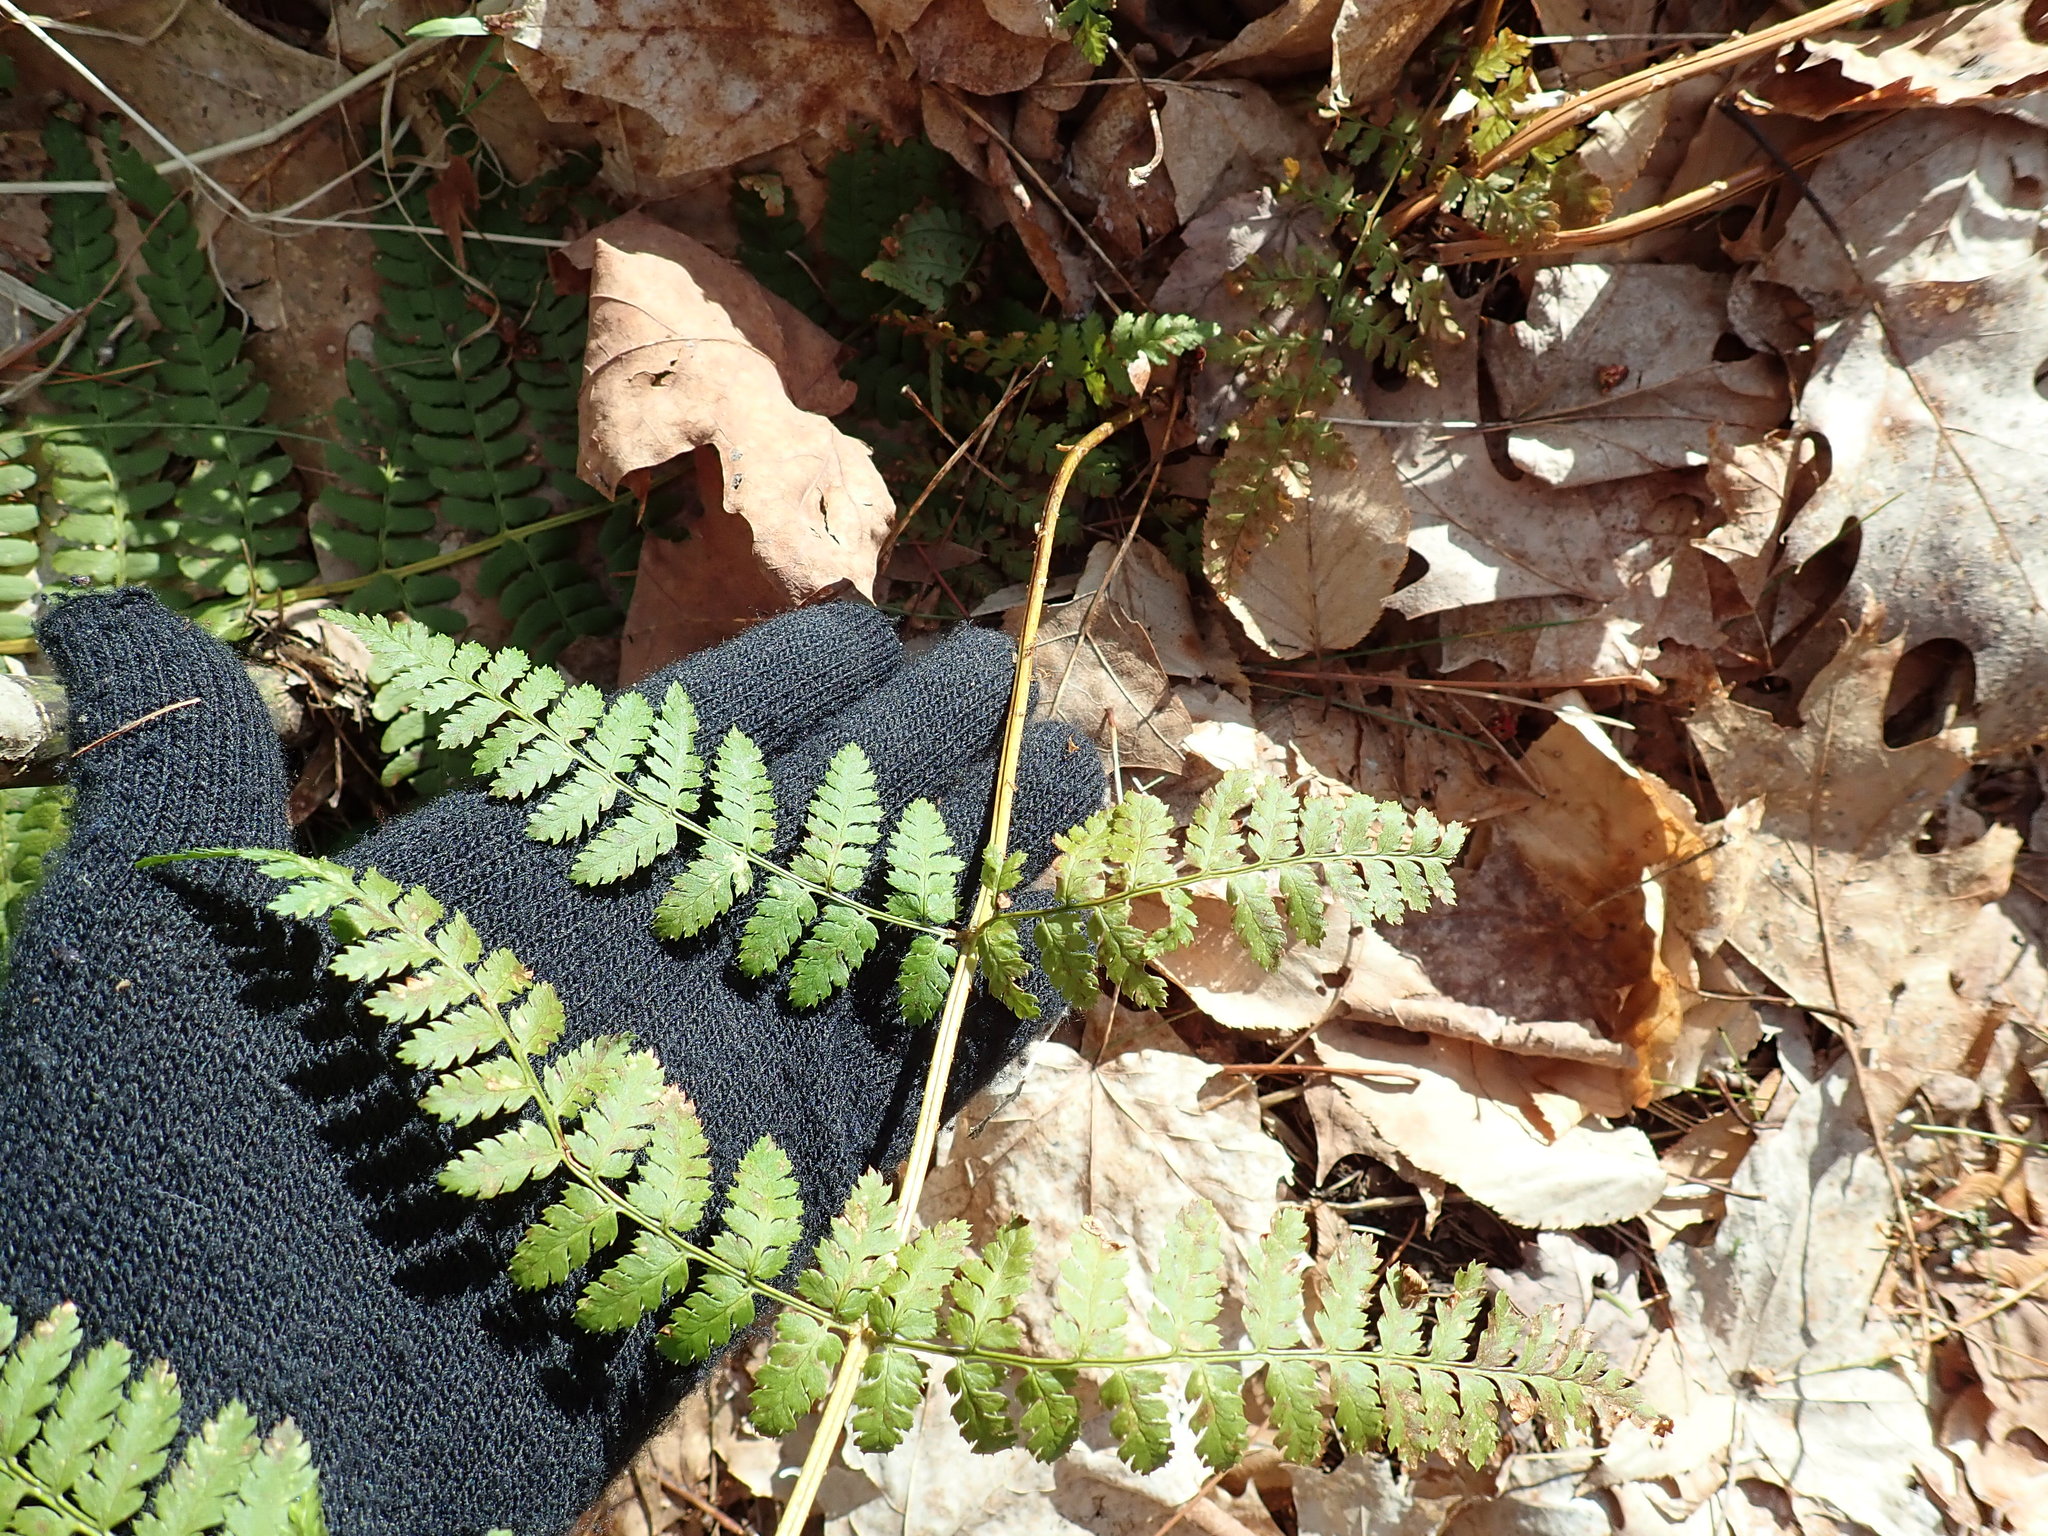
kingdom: Plantae
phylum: Tracheophyta
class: Polypodiopsida
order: Polypodiales
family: Dryopteridaceae
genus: Dryopteris
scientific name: Dryopteris intermedia
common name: Evergreen wood fern
